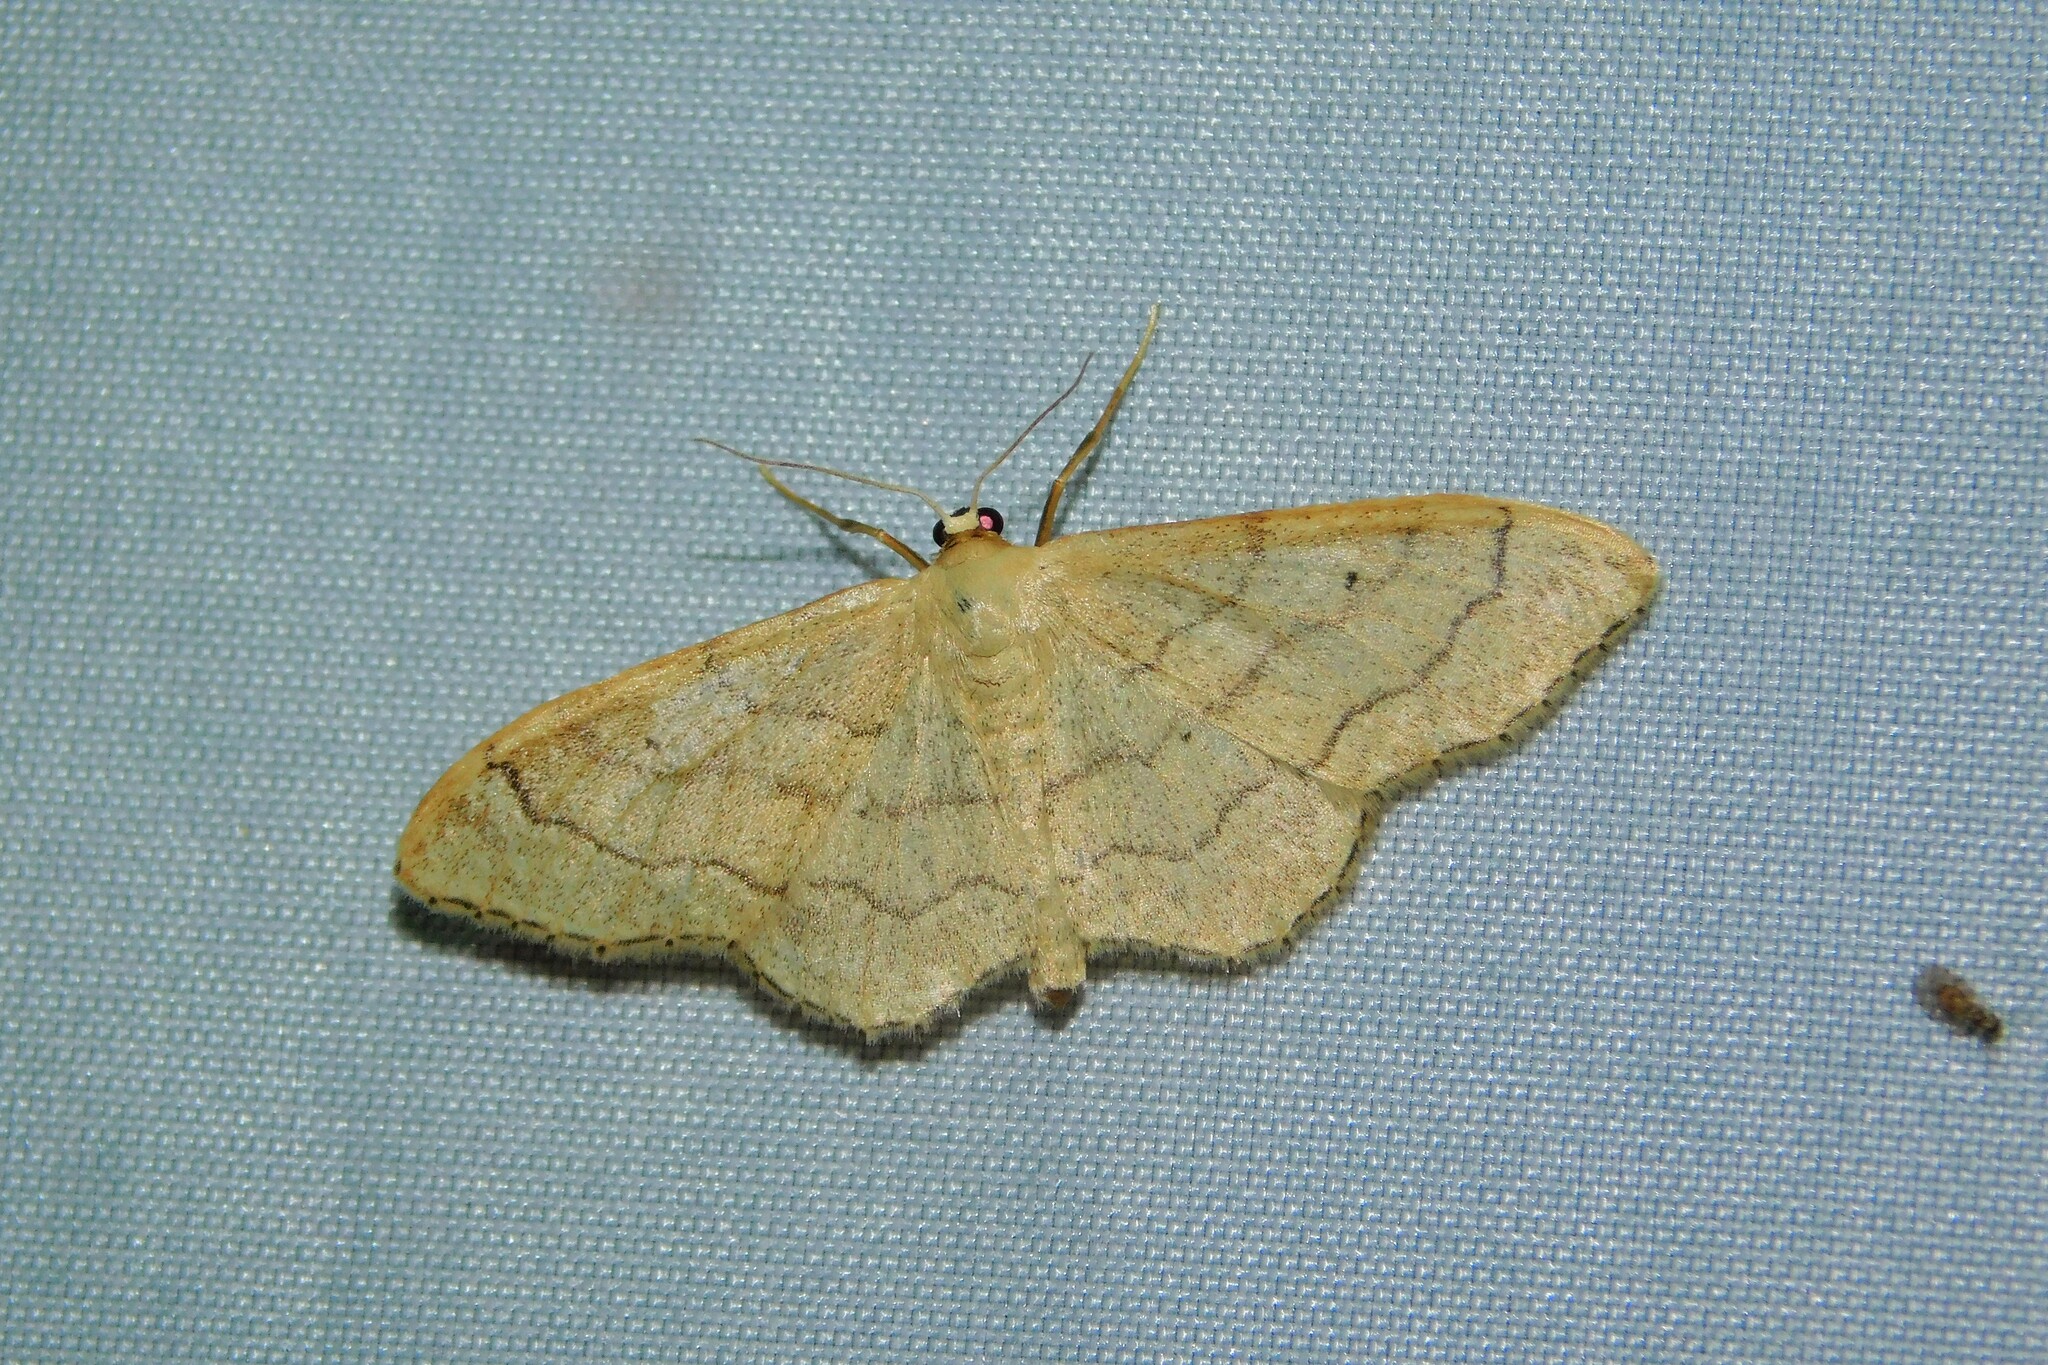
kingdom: Animalia
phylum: Arthropoda
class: Insecta
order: Lepidoptera
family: Geometridae
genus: Idaea
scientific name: Idaea aversata
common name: Riband wave
